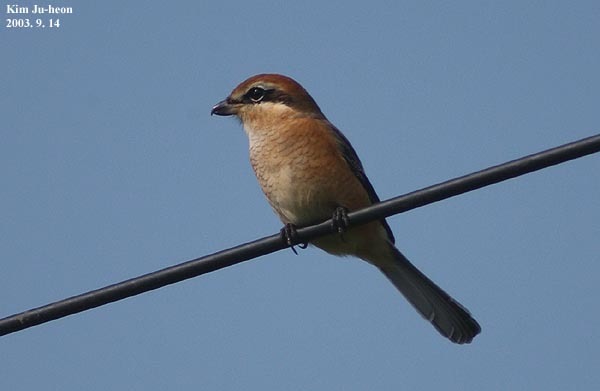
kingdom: Animalia
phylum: Chordata
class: Aves
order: Passeriformes
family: Laniidae
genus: Lanius
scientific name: Lanius bucephalus
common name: Bull-headed shrike
